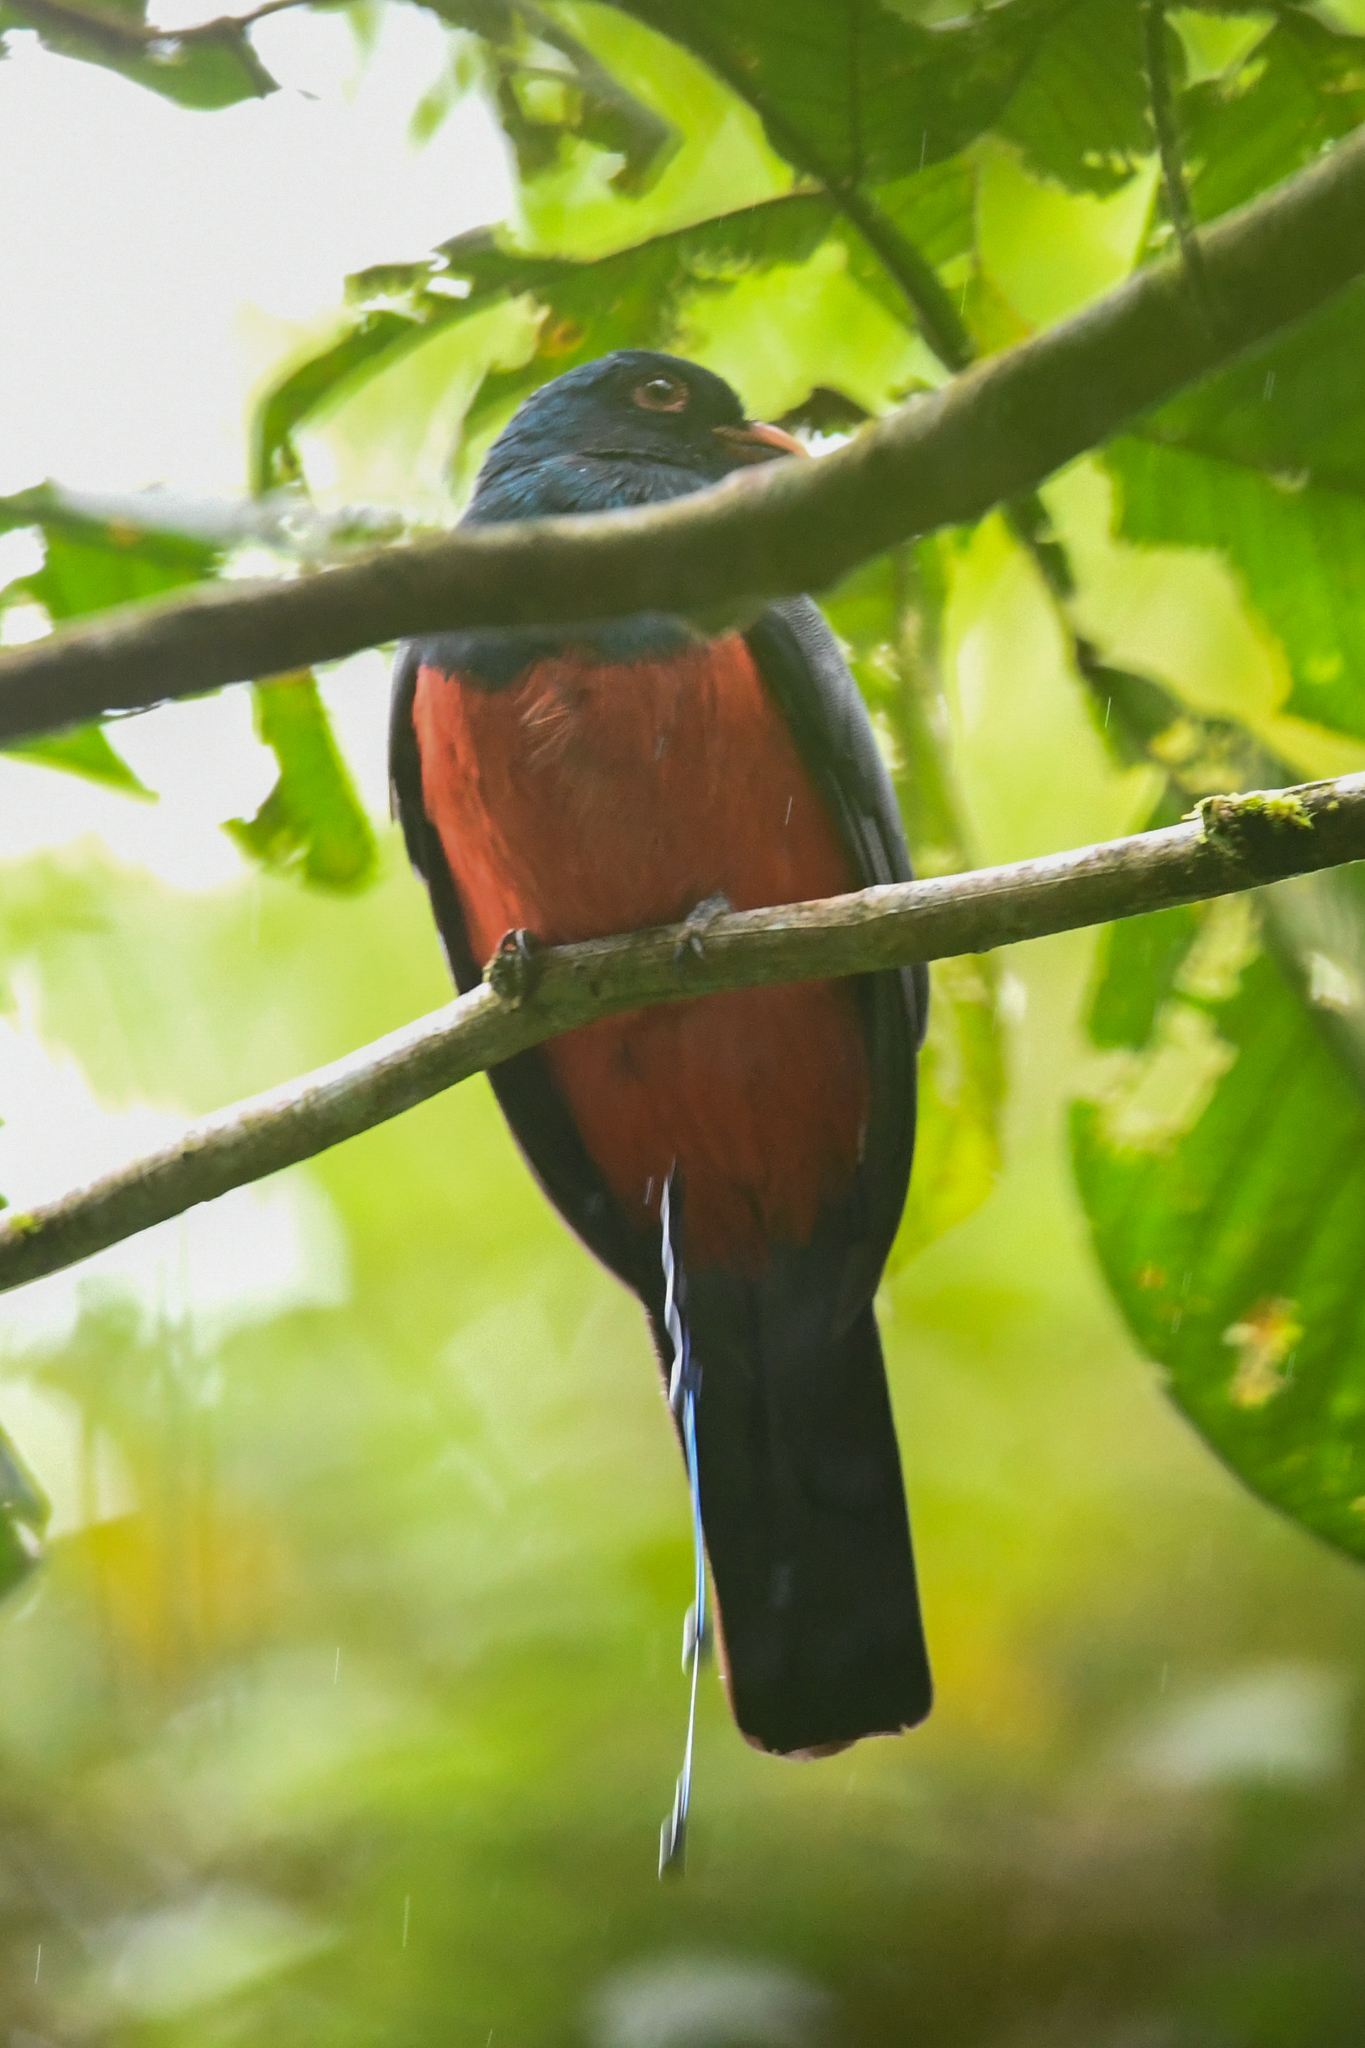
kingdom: Animalia
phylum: Chordata
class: Aves
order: Trogoniformes
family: Trogonidae
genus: Trogon
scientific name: Trogon massena
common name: Slaty-tailed trogon
